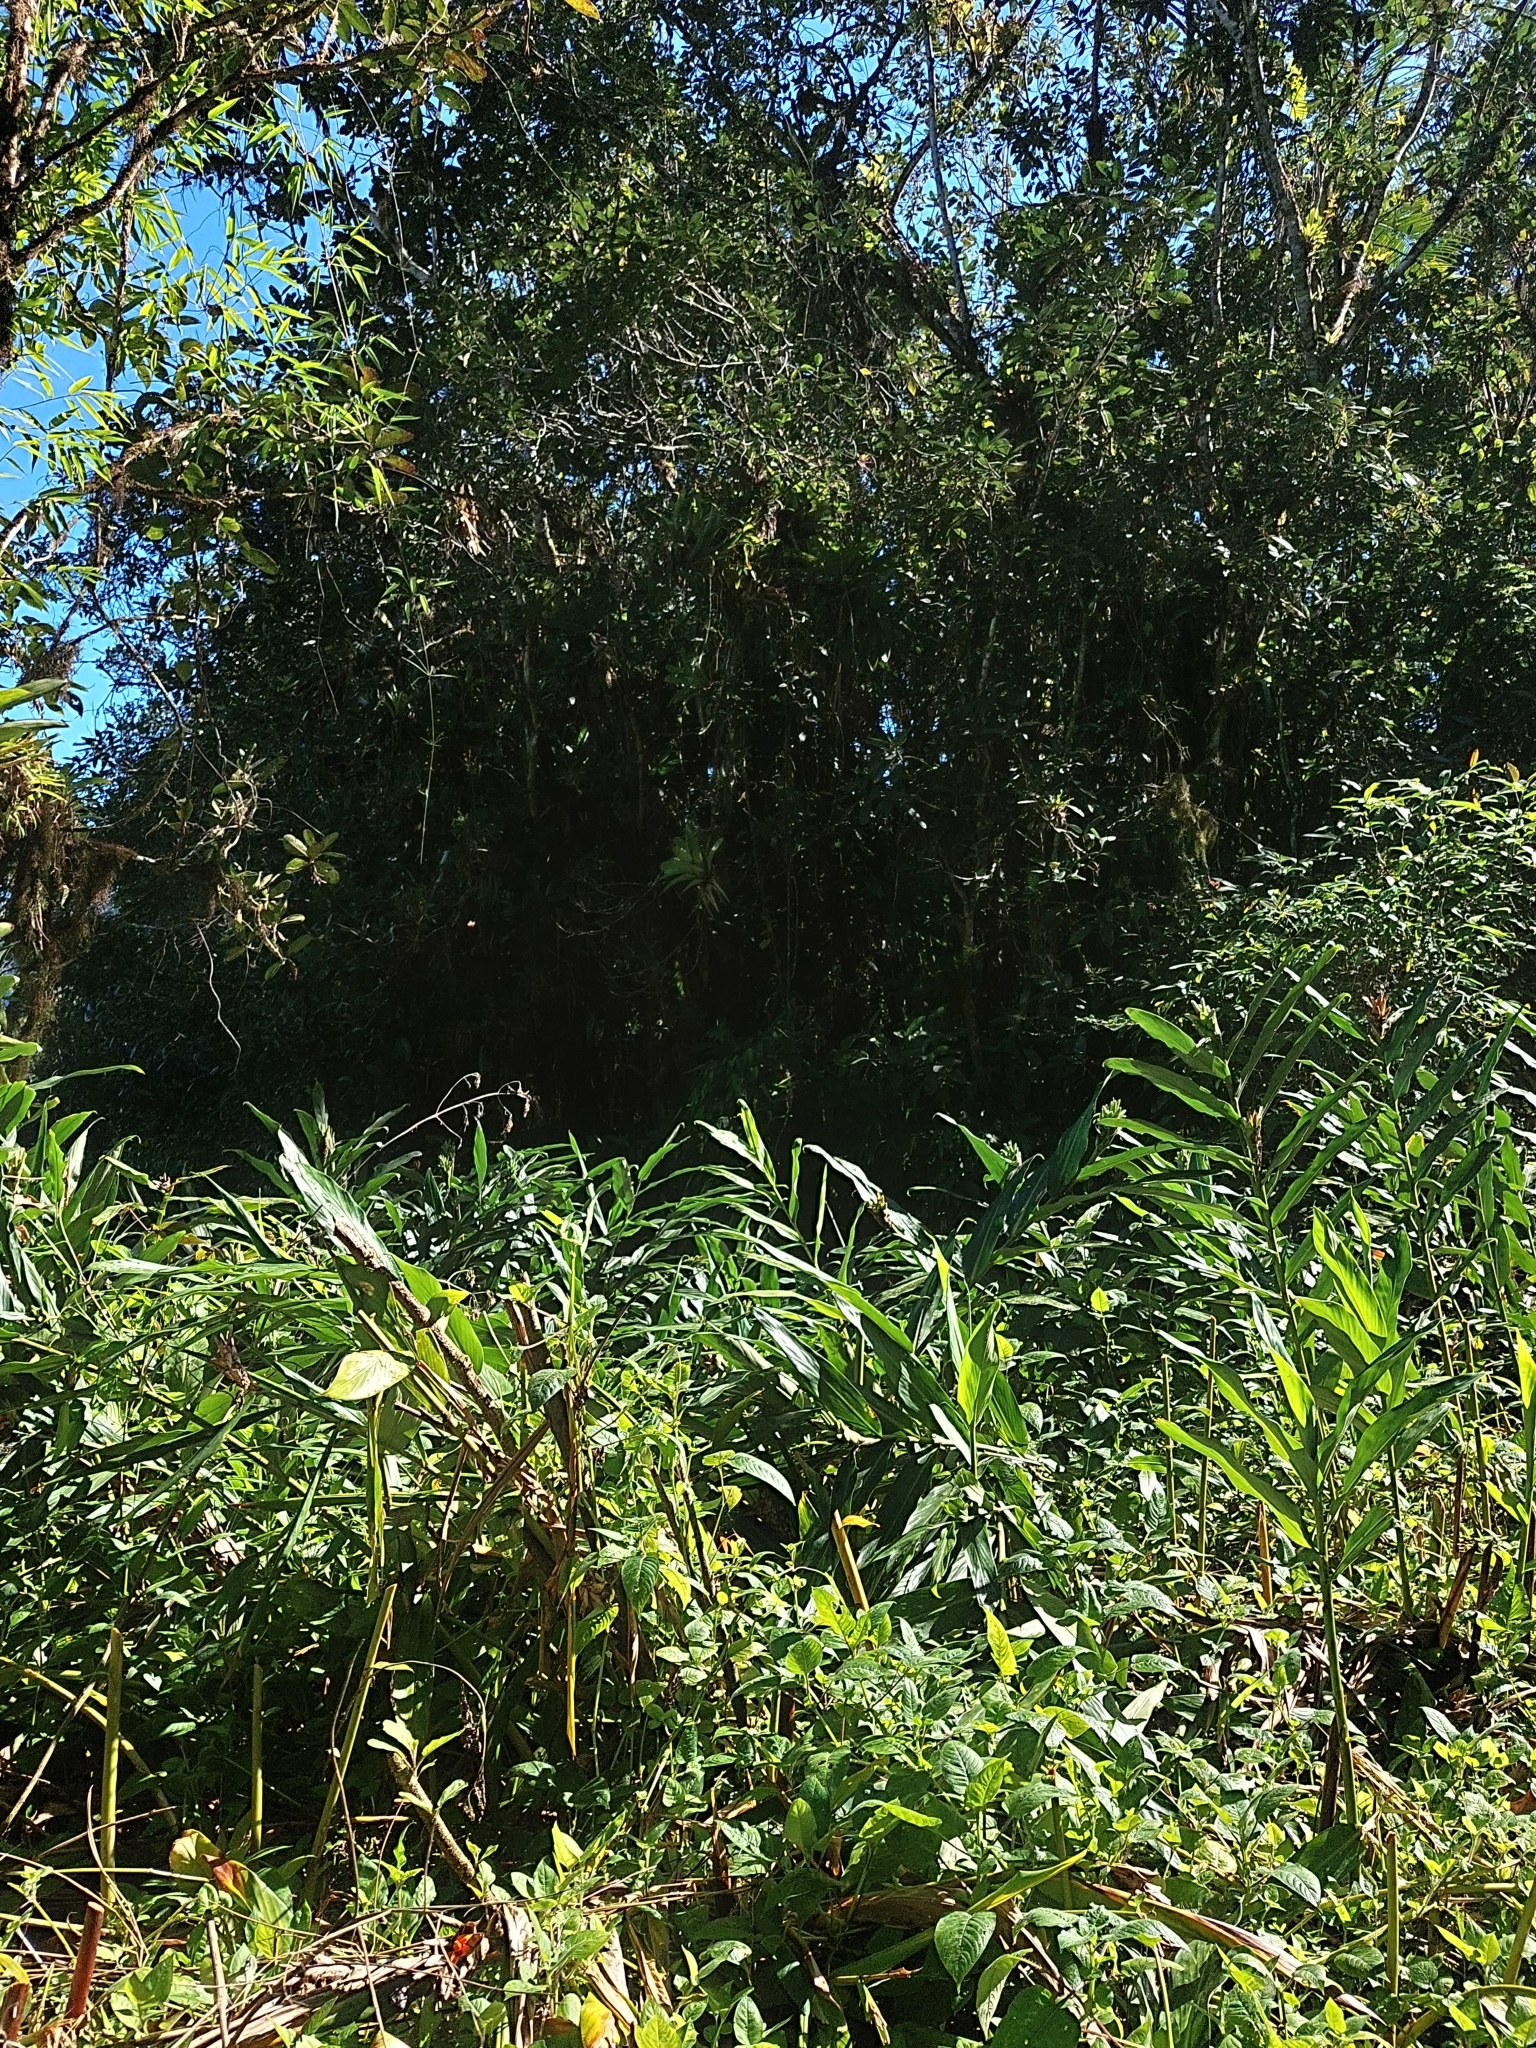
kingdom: Plantae
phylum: Tracheophyta
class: Liliopsida
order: Zingiberales
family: Zingiberaceae
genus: Hedychium
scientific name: Hedychium coronarium
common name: White garland-lily
